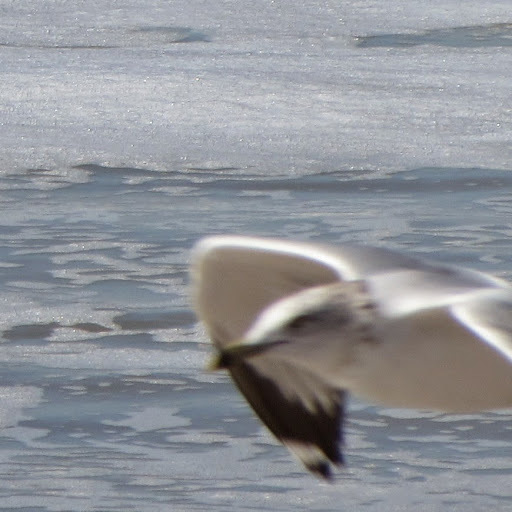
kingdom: Animalia
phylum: Chordata
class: Aves
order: Charadriiformes
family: Laridae
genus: Larus
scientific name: Larus delawarensis
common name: Ring-billed gull
